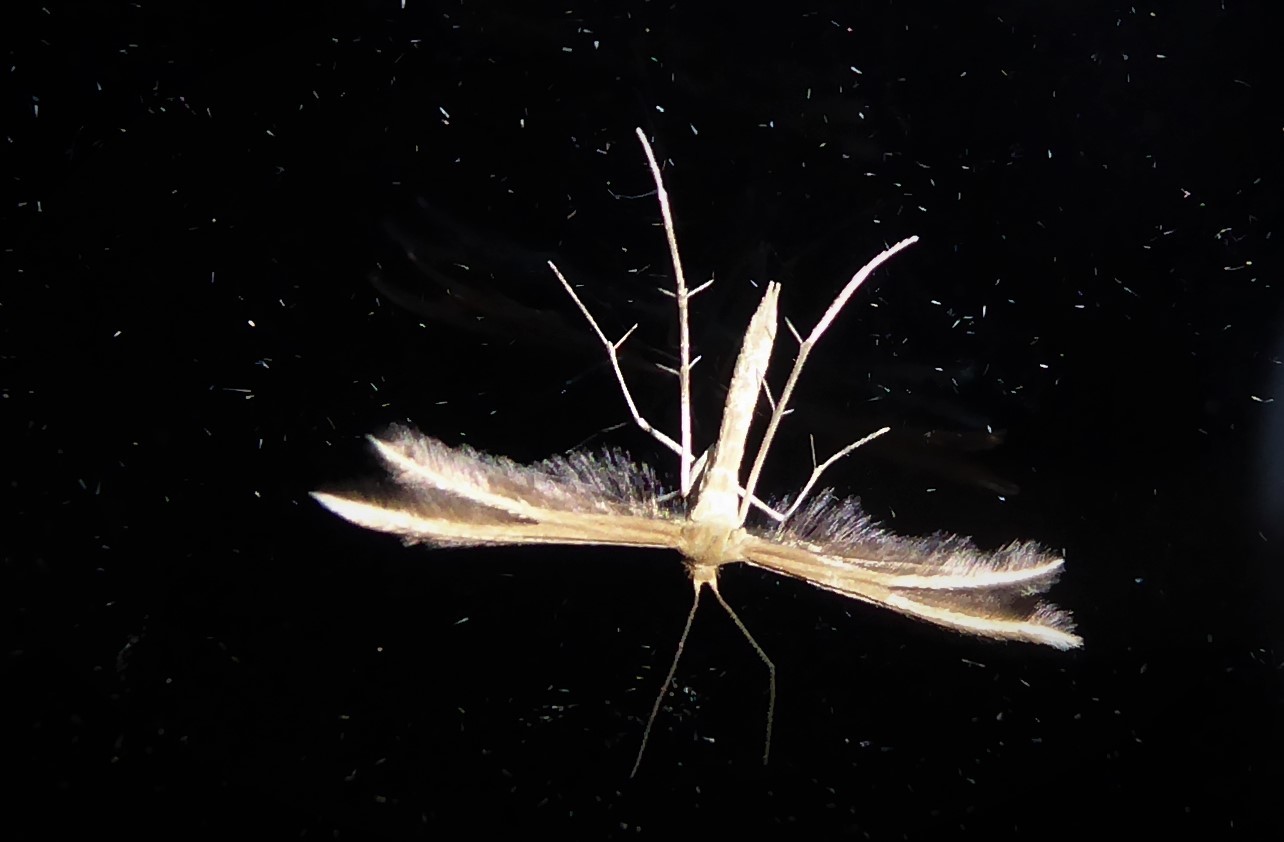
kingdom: Animalia
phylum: Arthropoda
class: Insecta
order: Lepidoptera
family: Pterophoridae
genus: Pterophorus
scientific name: Pterophorus innotatalis
